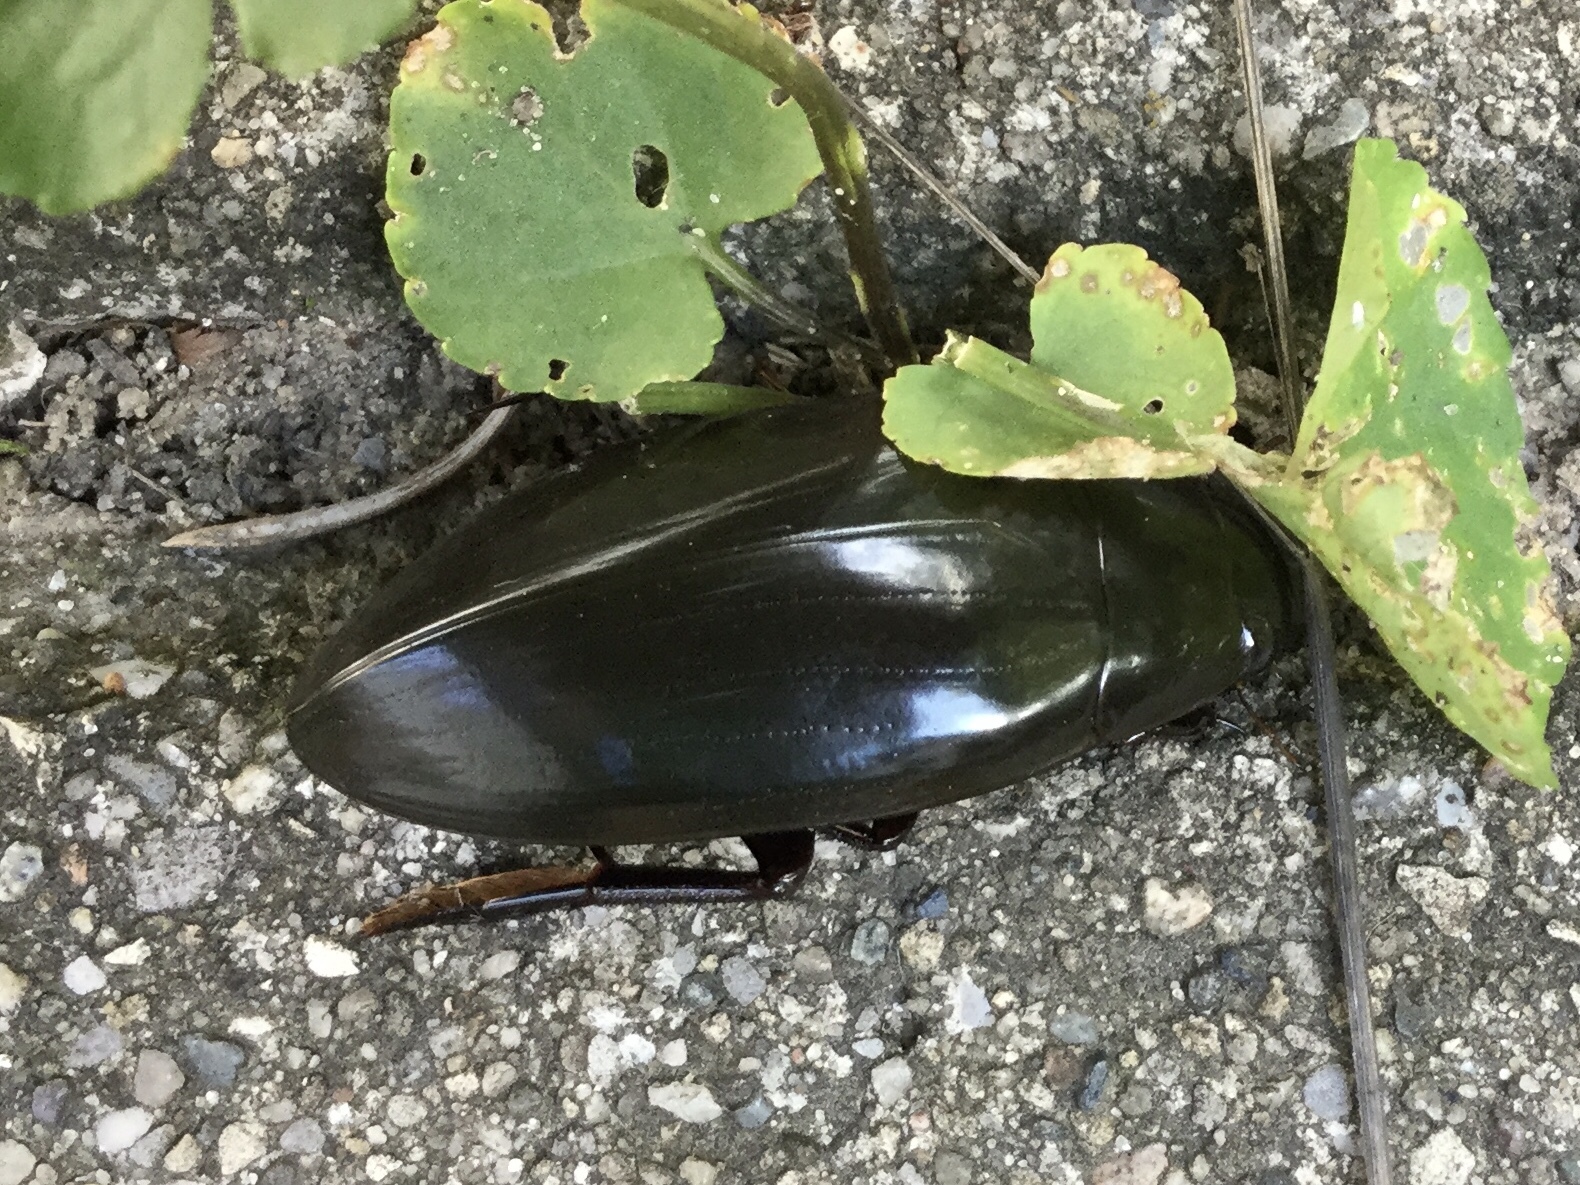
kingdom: Animalia
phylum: Arthropoda
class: Insecta
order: Coleoptera
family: Hydrophilidae
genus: Hydrophilus
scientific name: Hydrophilus triangularis
